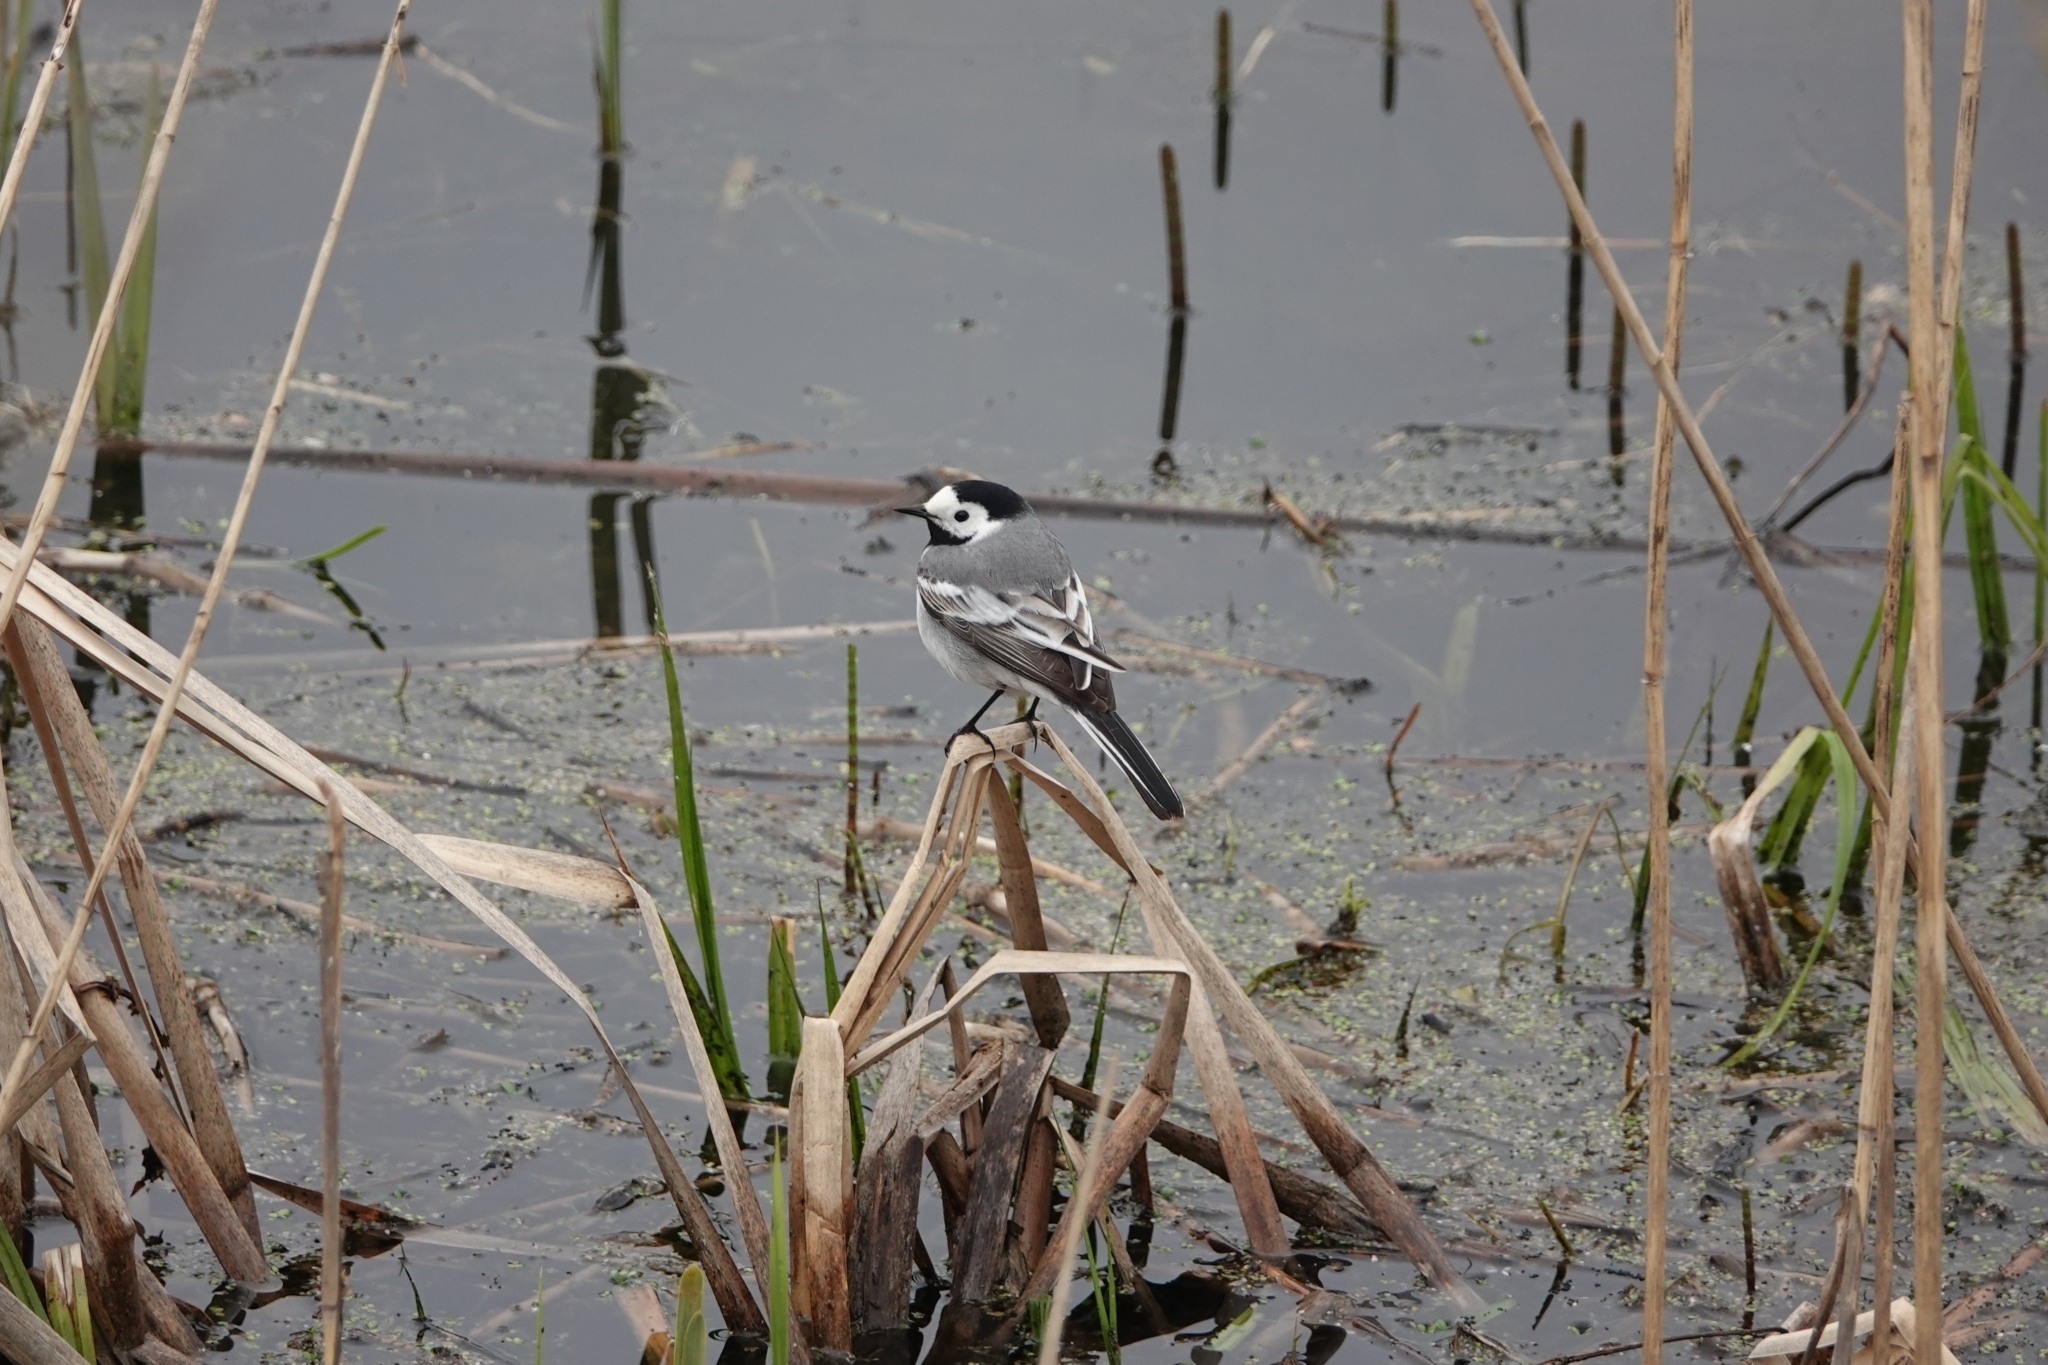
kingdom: Animalia
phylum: Chordata
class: Aves
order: Passeriformes
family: Motacillidae
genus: Motacilla
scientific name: Motacilla alba
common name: White wagtail
